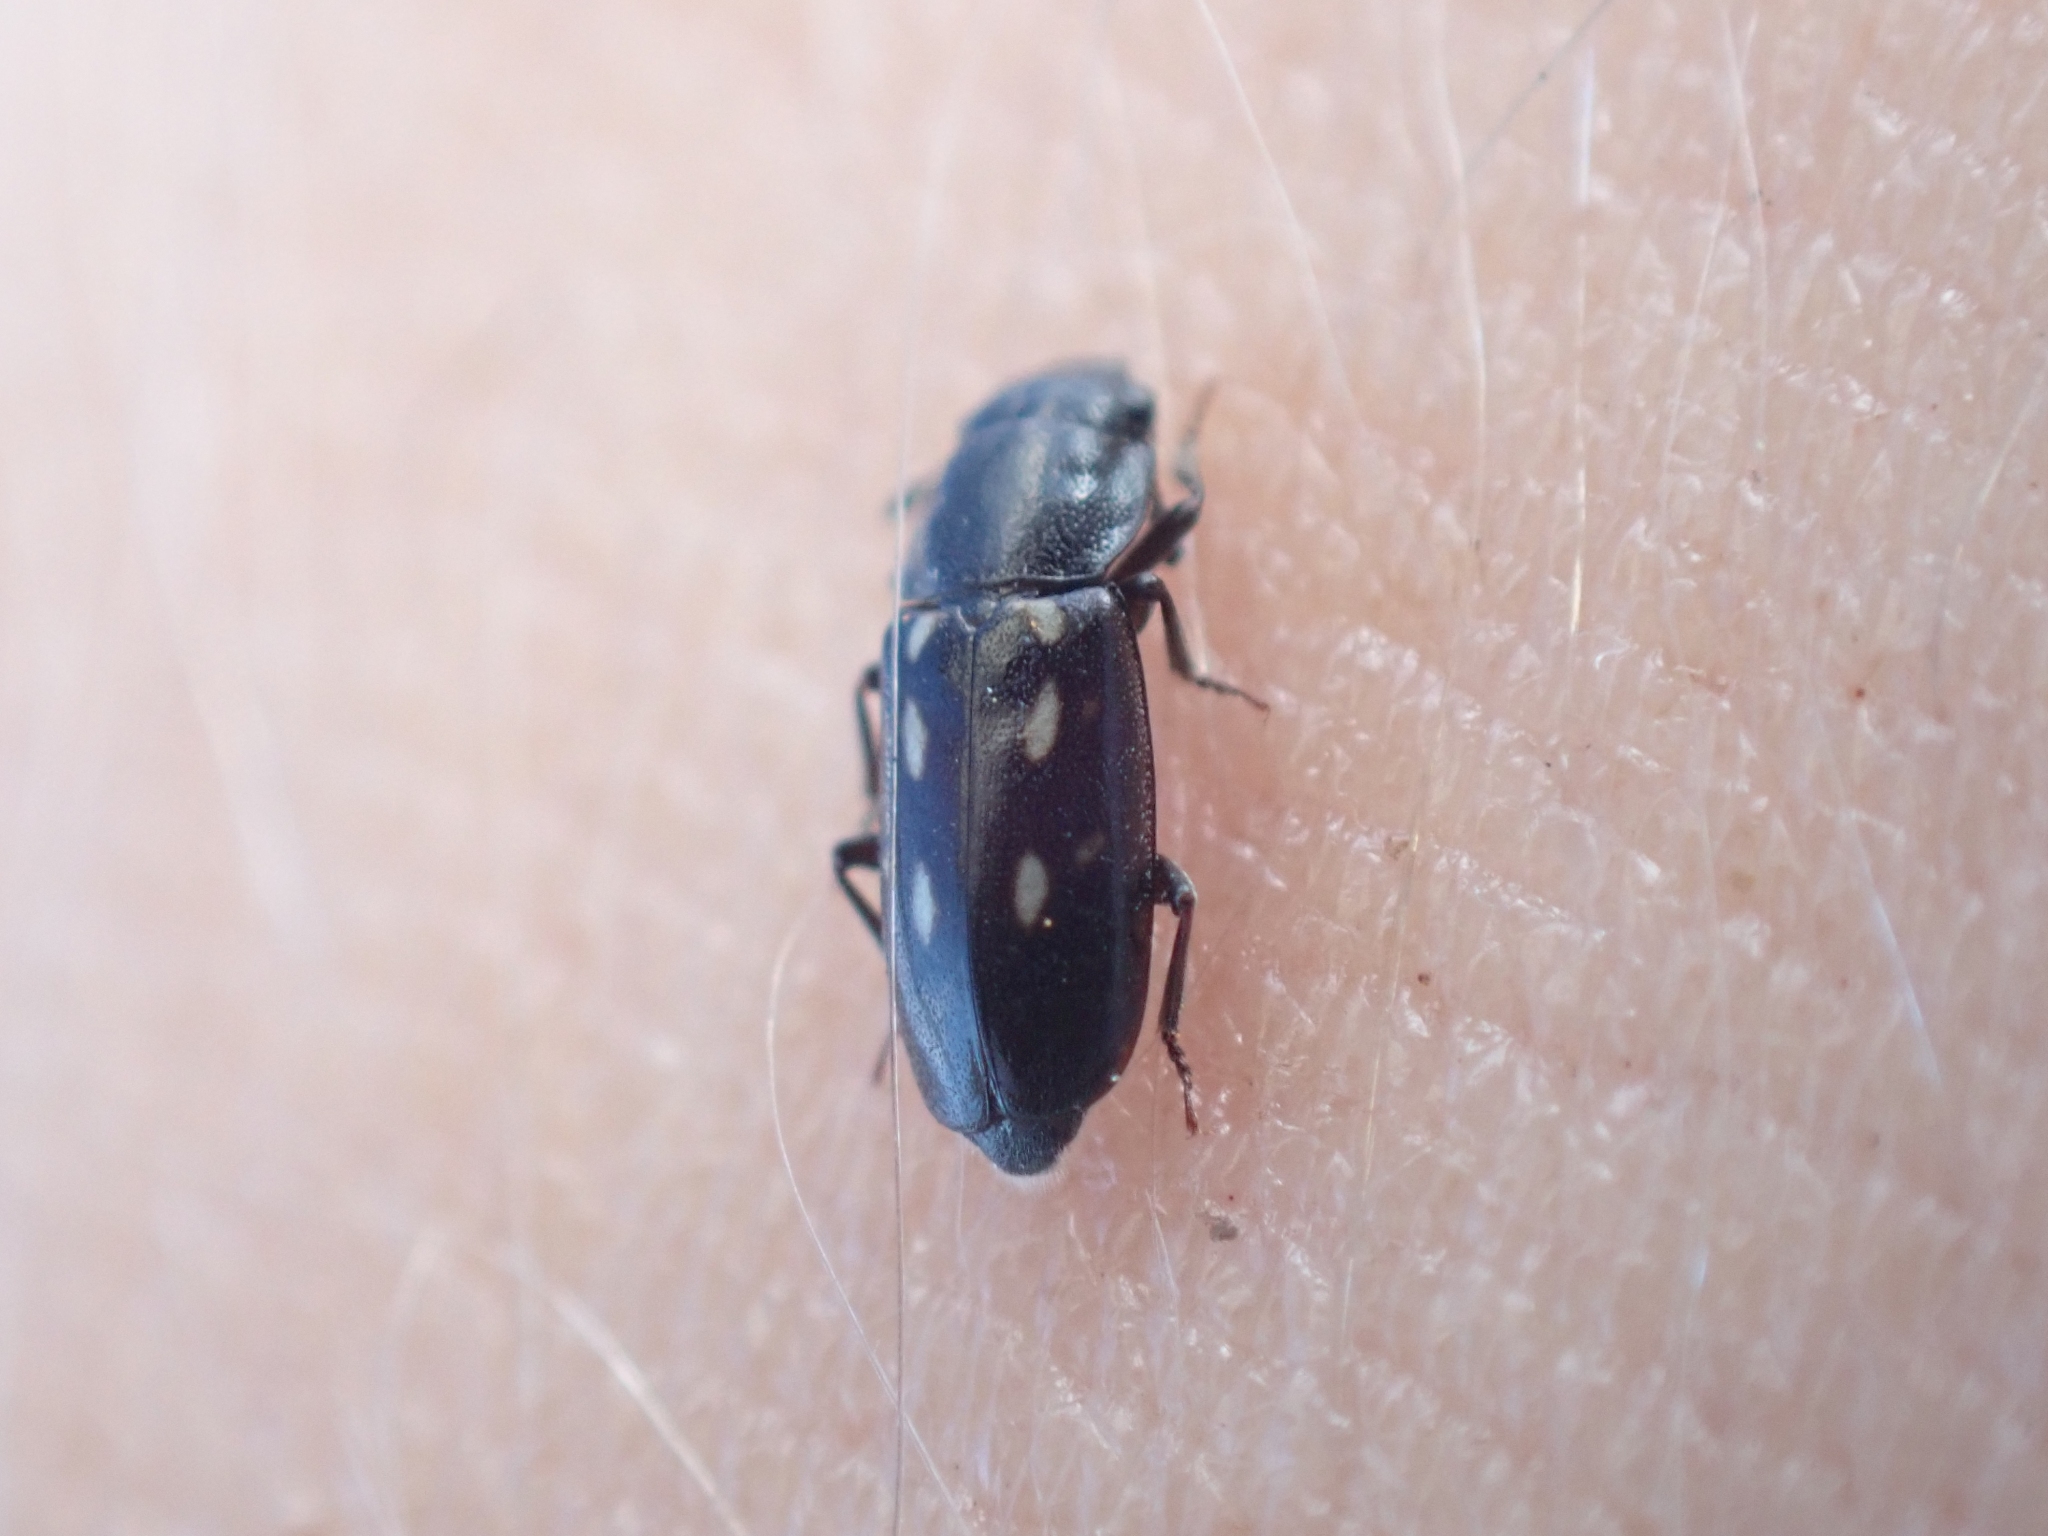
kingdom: Animalia
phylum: Arthropoda
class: Insecta
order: Coleoptera
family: Nitidulidae
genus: Glischrochilus
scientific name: Glischrochilus vittatus
